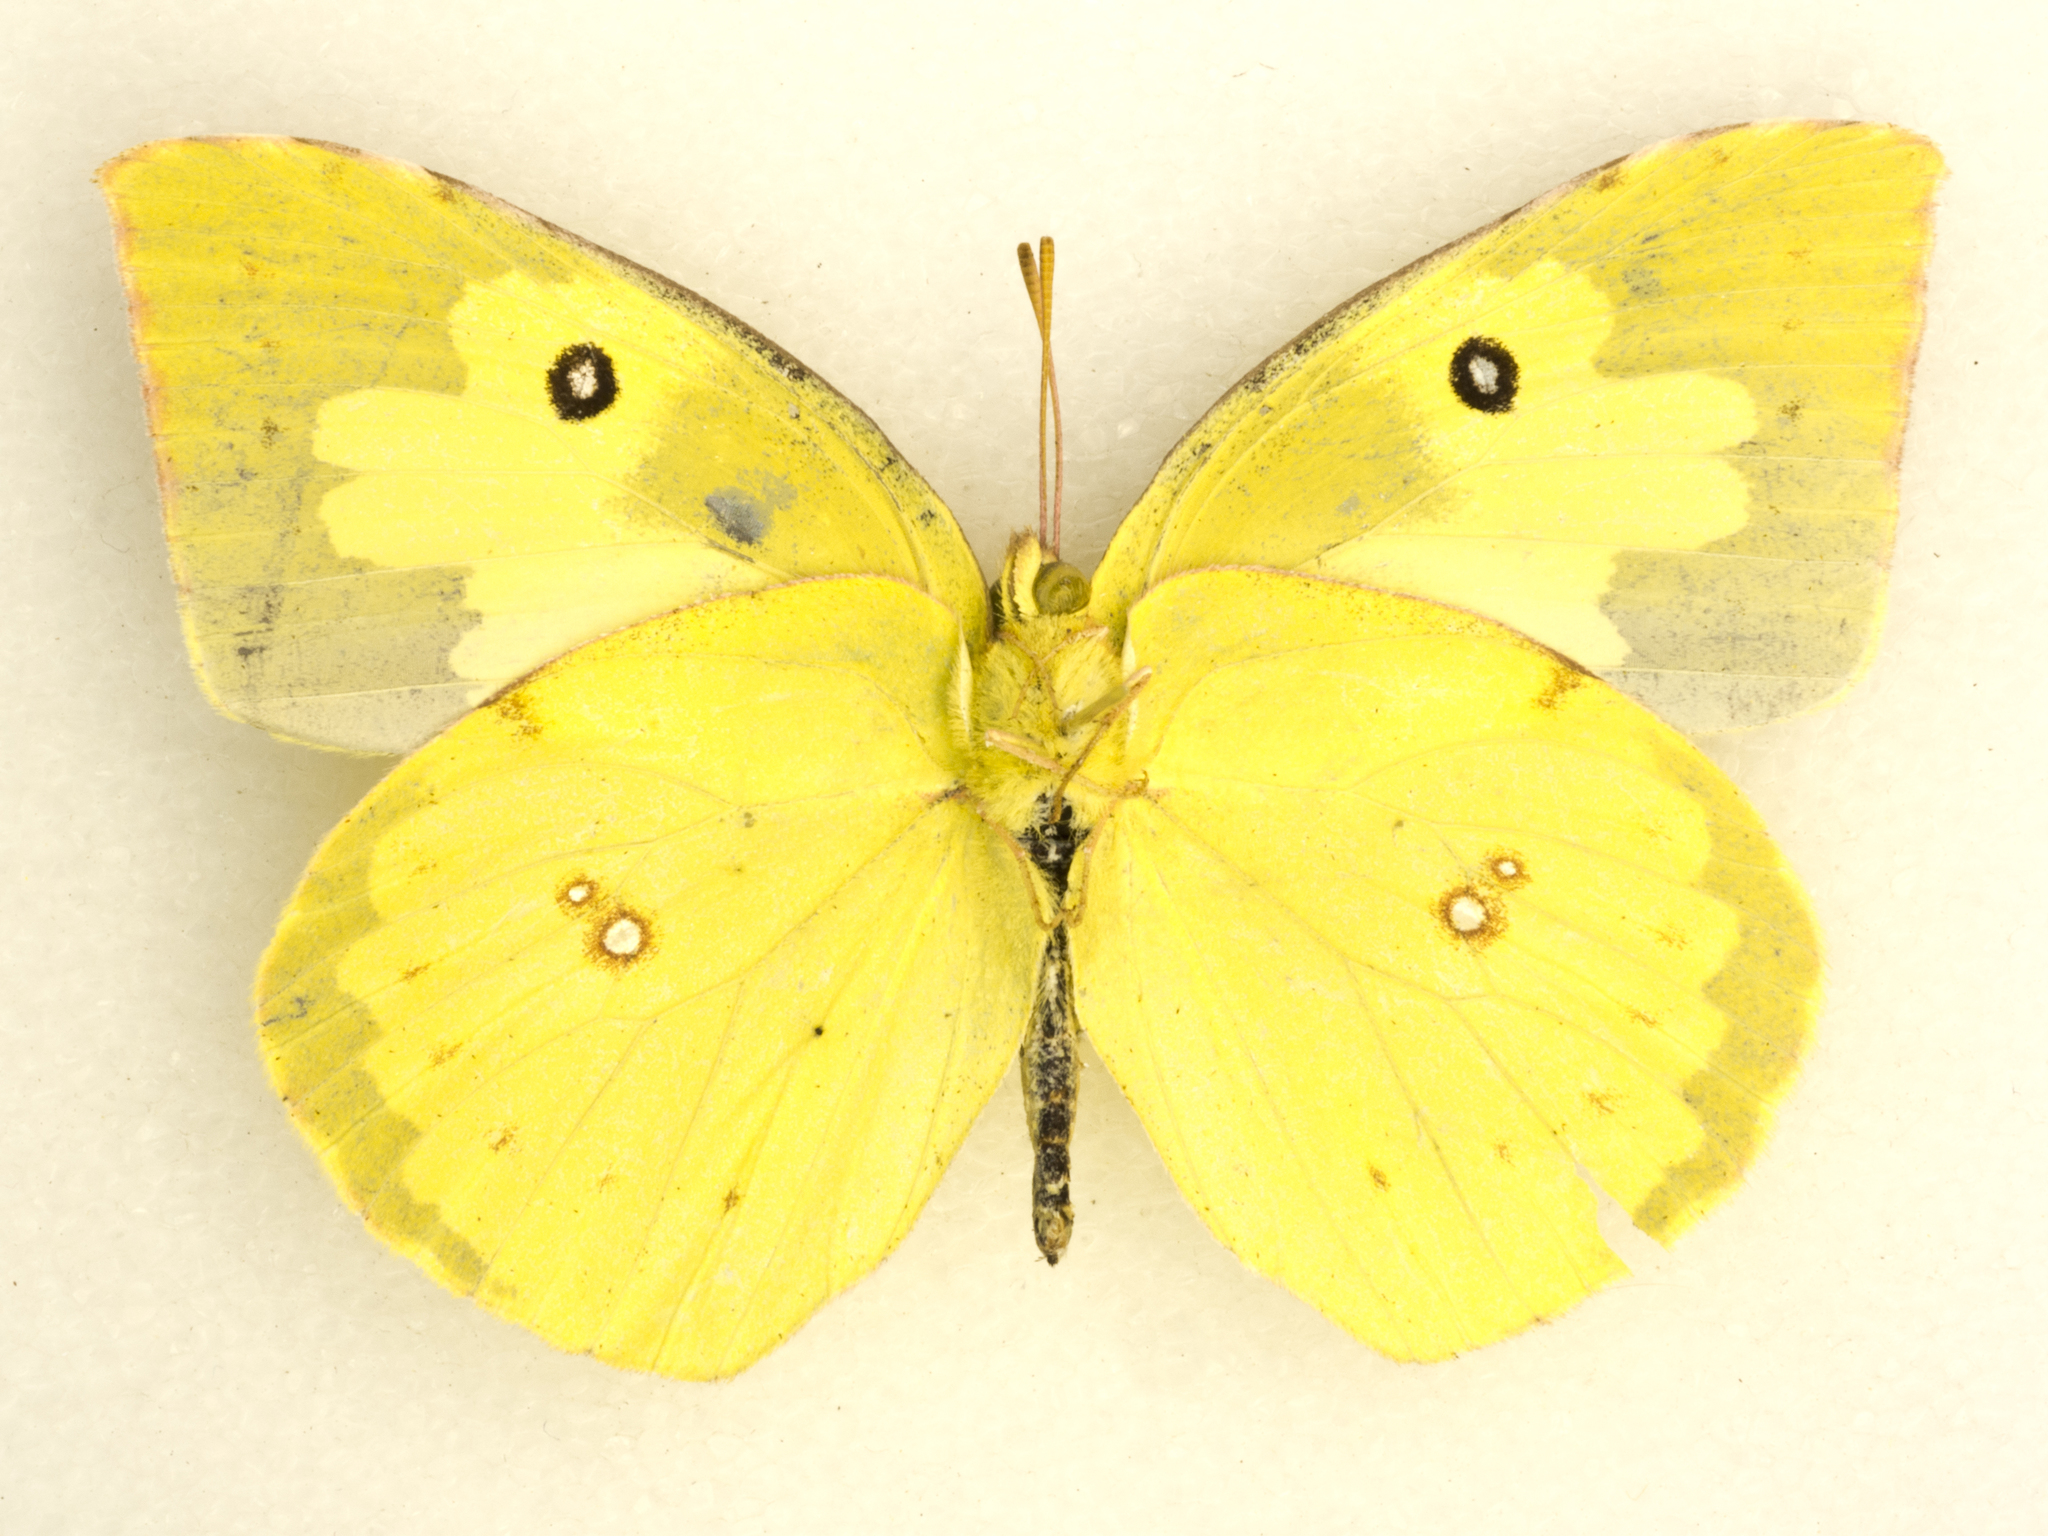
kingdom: Animalia
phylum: Arthropoda
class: Insecta
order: Lepidoptera
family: Pieridae
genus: Zerene
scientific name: Zerene cesonia
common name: Southern dogface
